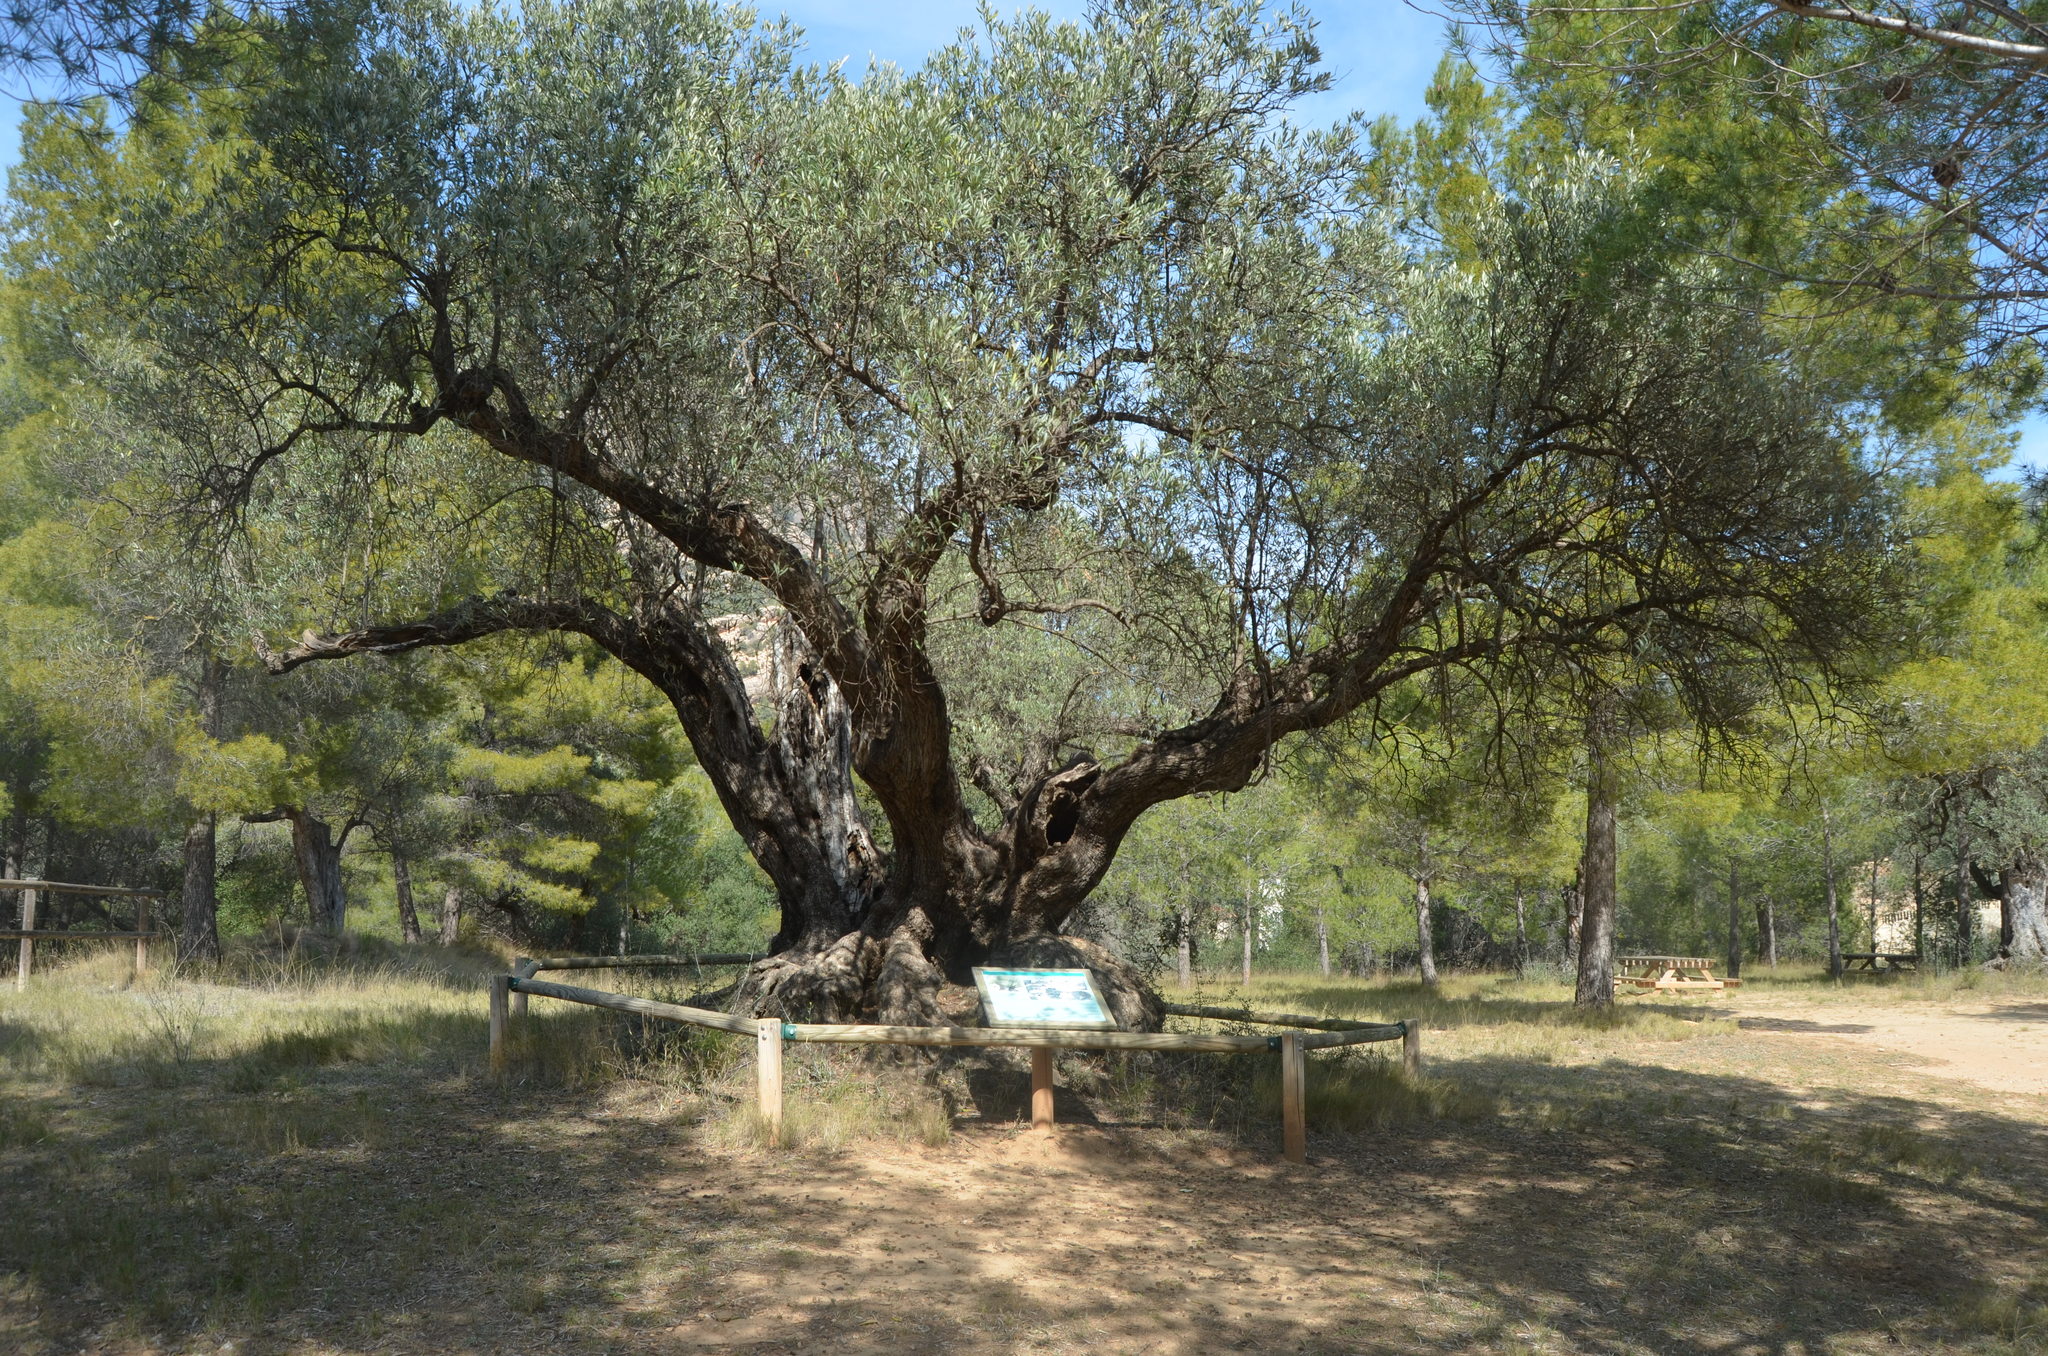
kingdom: Plantae
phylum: Tracheophyta
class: Magnoliopsida
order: Lamiales
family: Oleaceae
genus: Olea
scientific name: Olea europaea
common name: Olive
